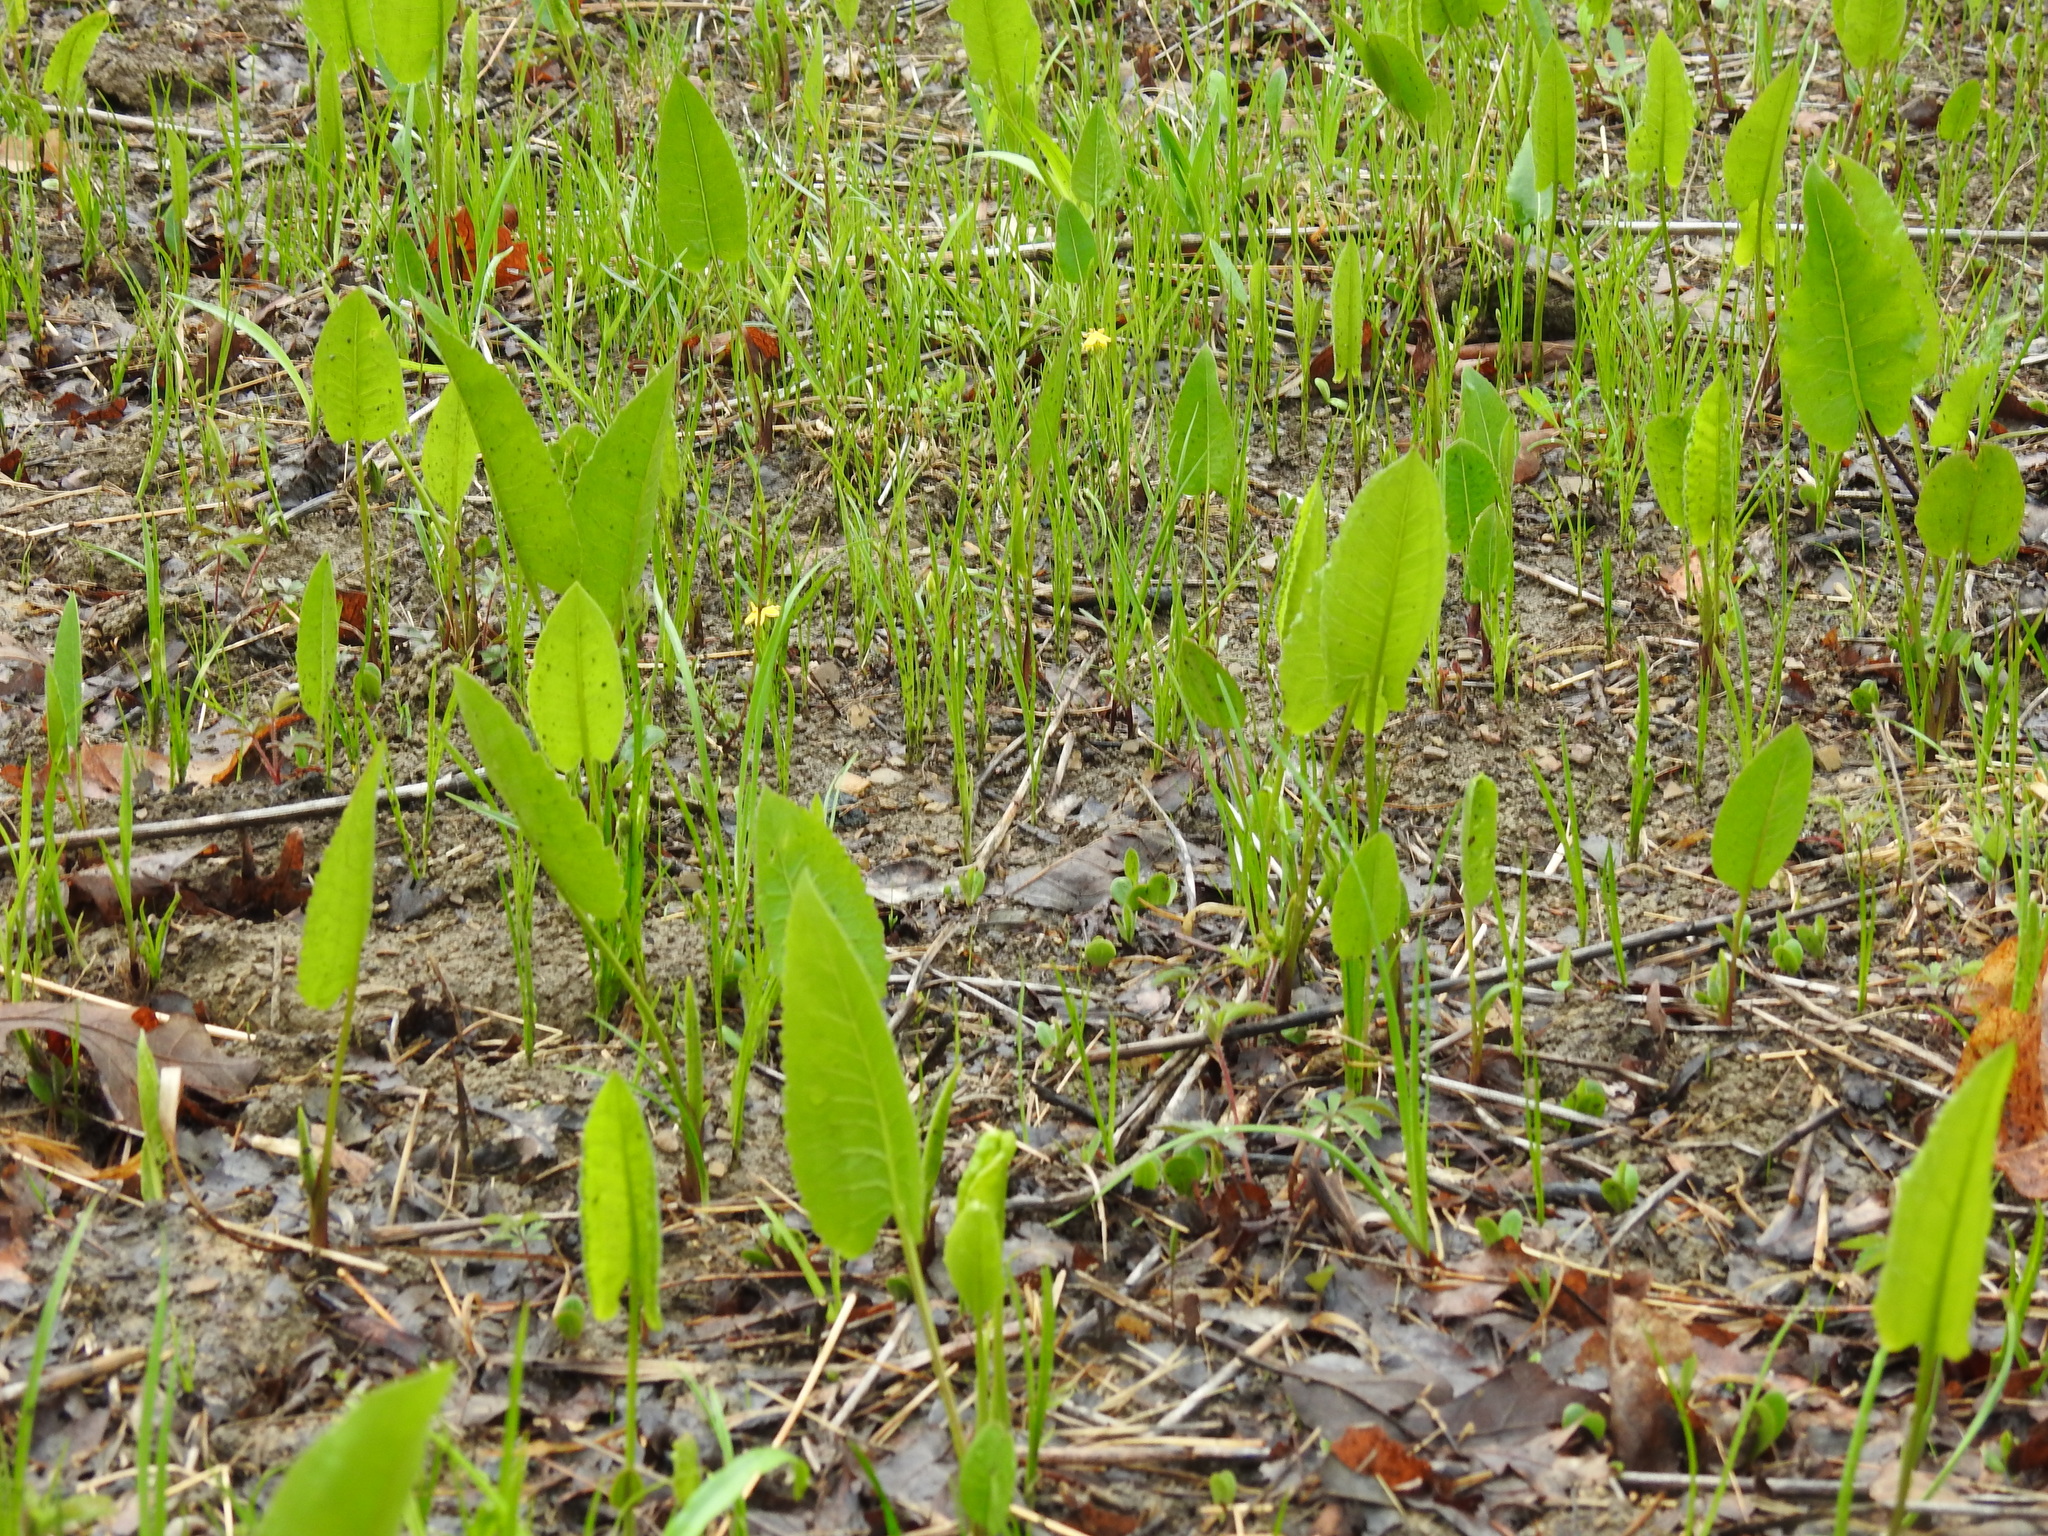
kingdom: Plantae
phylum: Tracheophyta
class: Magnoliopsida
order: Asterales
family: Asteraceae
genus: Silphium
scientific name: Silphium terebinthinaceum
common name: Basal-leaf rosinweed
